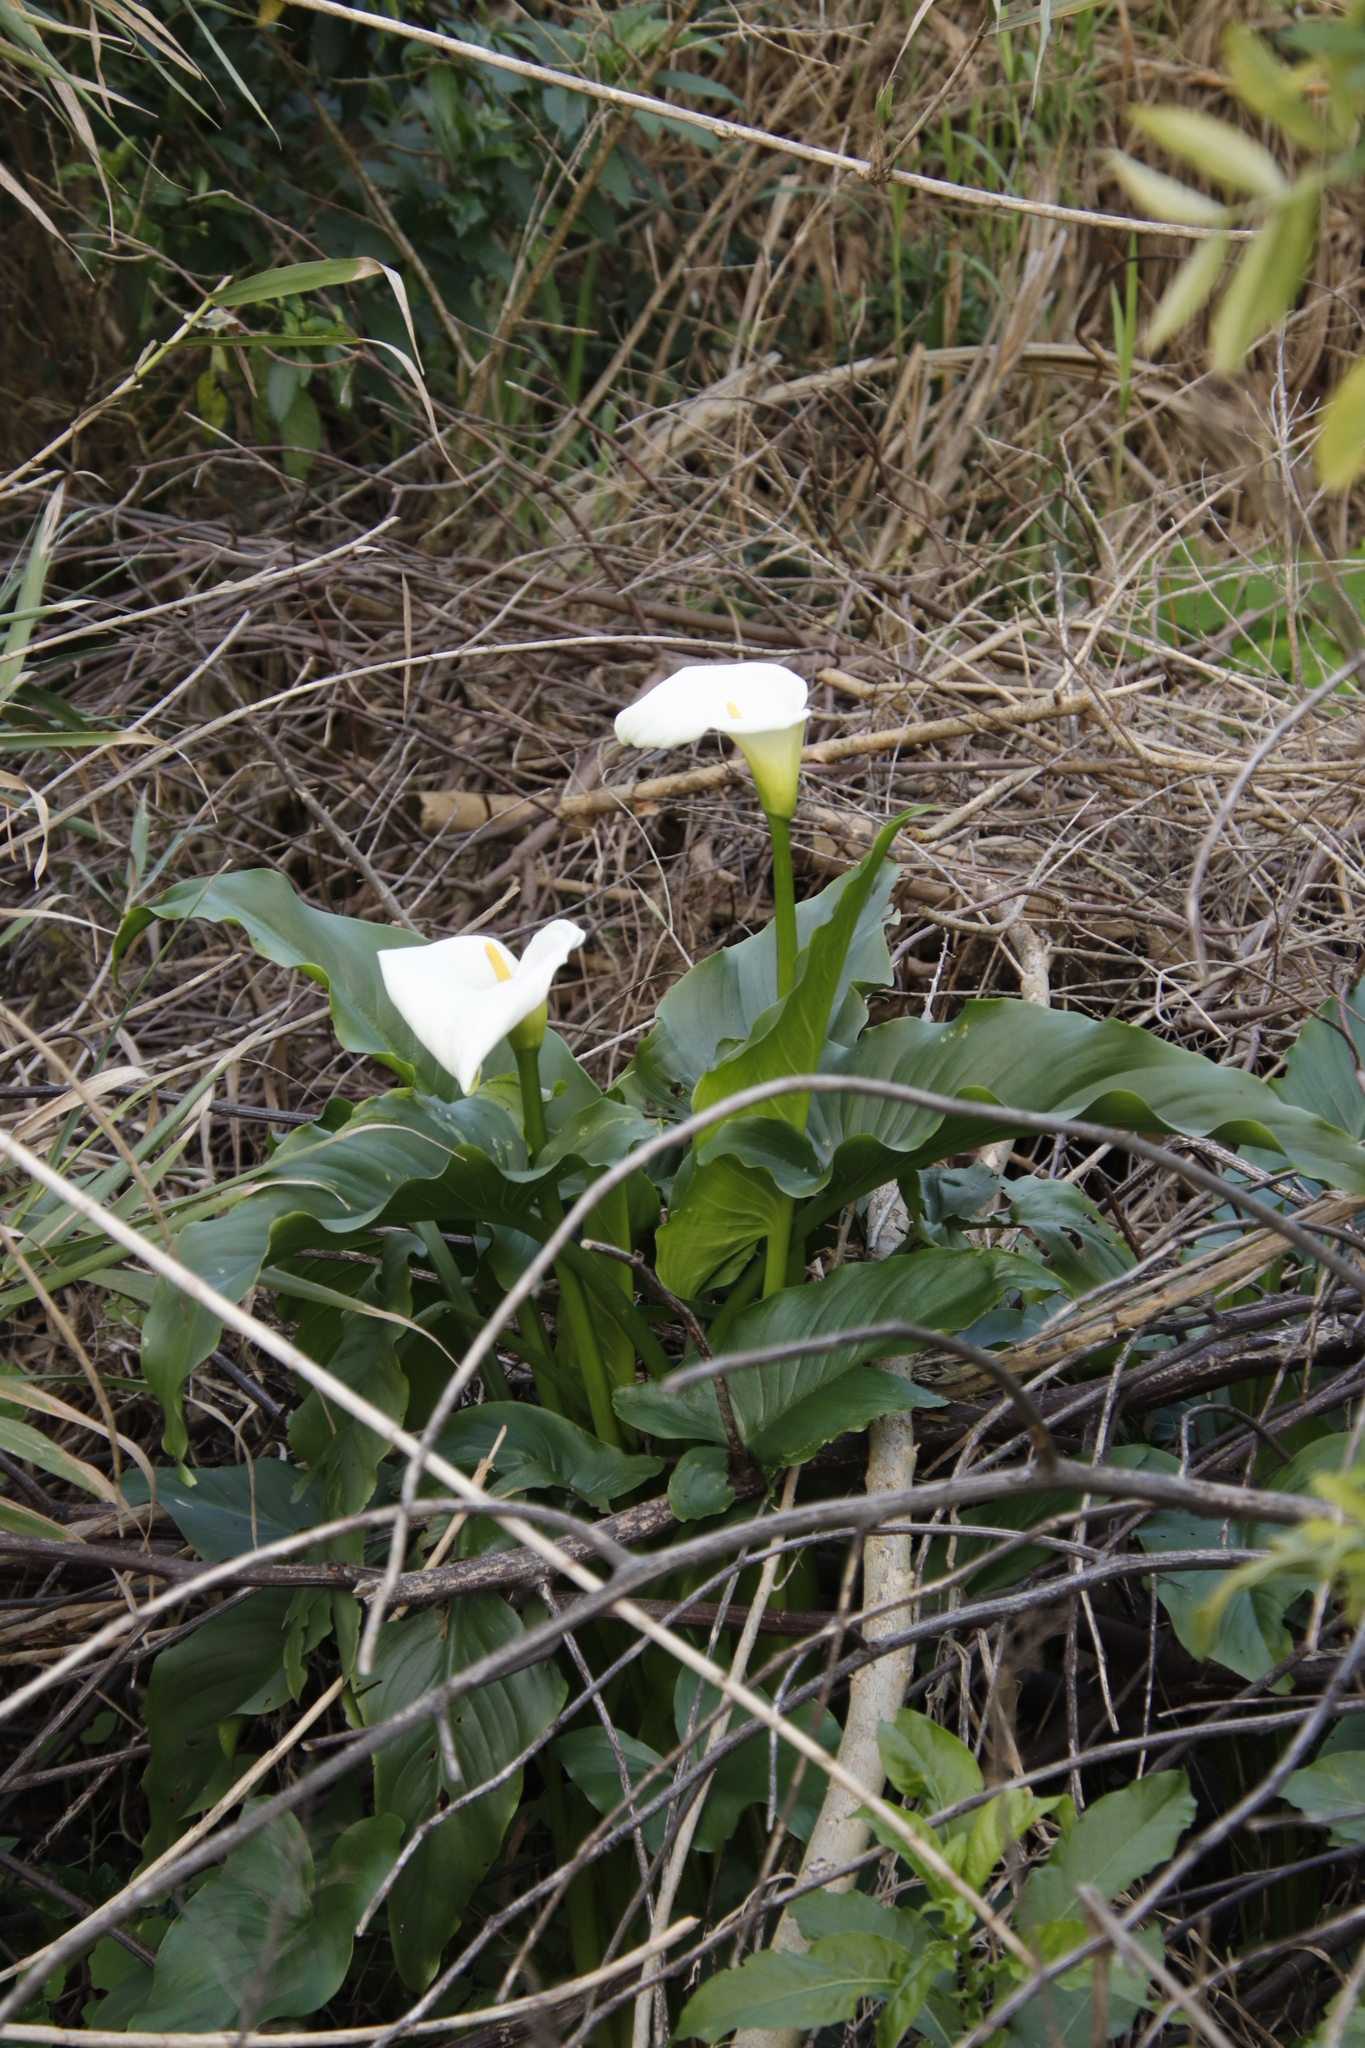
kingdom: Plantae
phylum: Tracheophyta
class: Liliopsida
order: Alismatales
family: Araceae
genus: Zantedeschia
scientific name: Zantedeschia aethiopica
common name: Altar-lily
